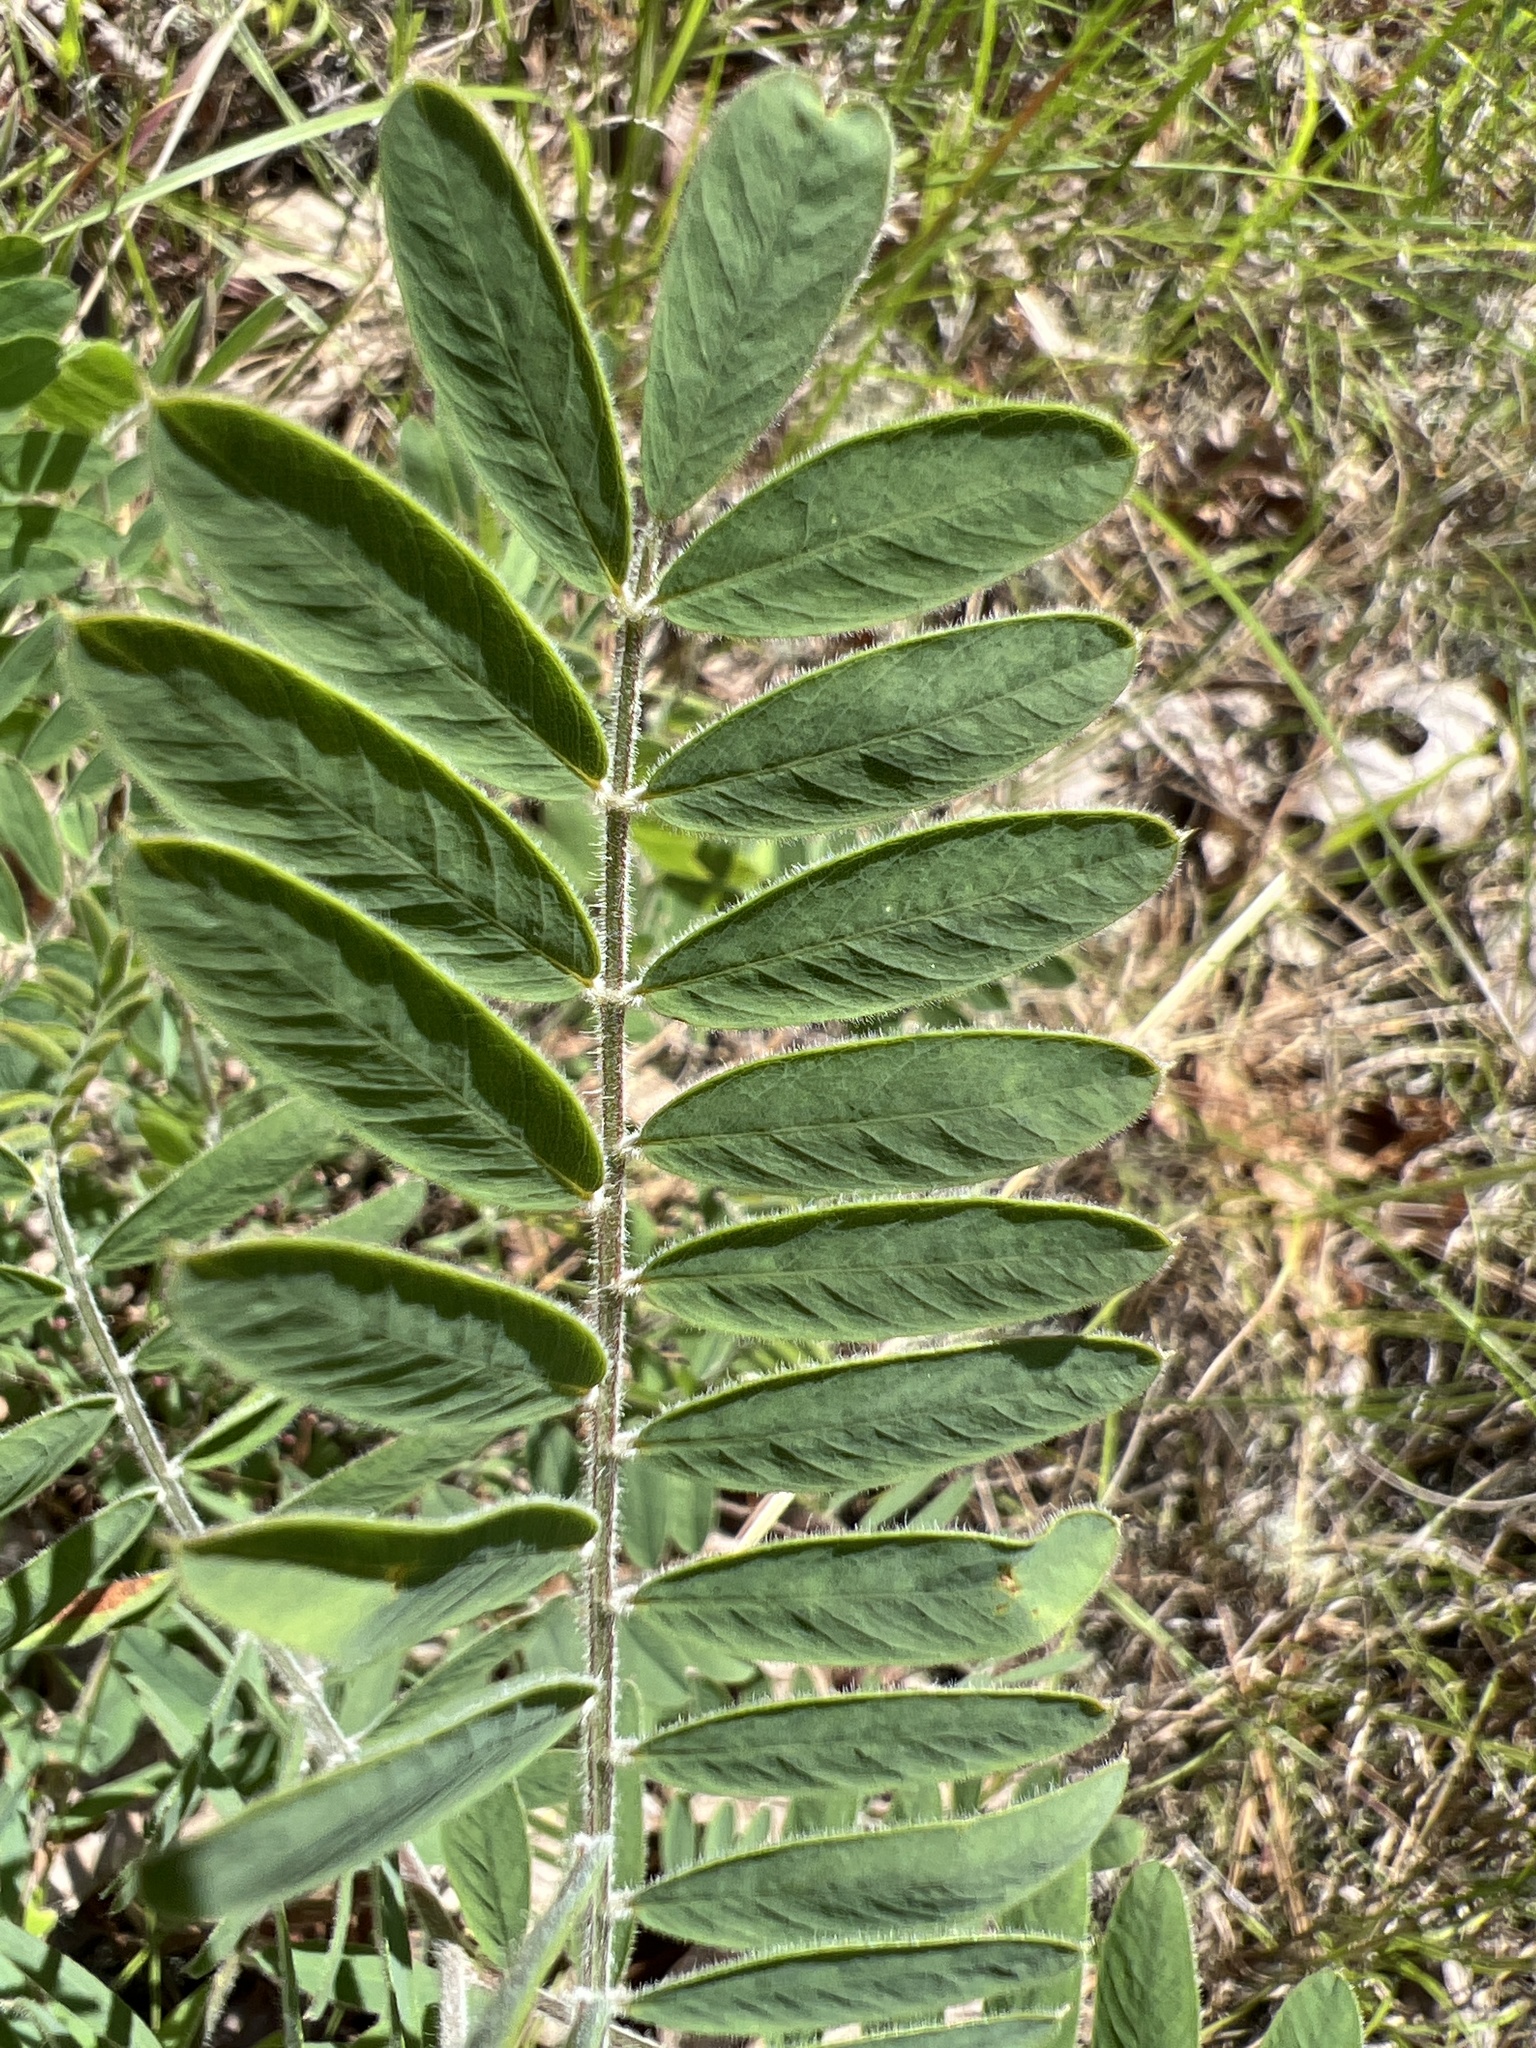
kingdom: Plantae
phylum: Tracheophyta
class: Magnoliopsida
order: Fabales
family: Fabaceae
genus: Tephrosia
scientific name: Tephrosia virginiana
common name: Rabbit-pea
